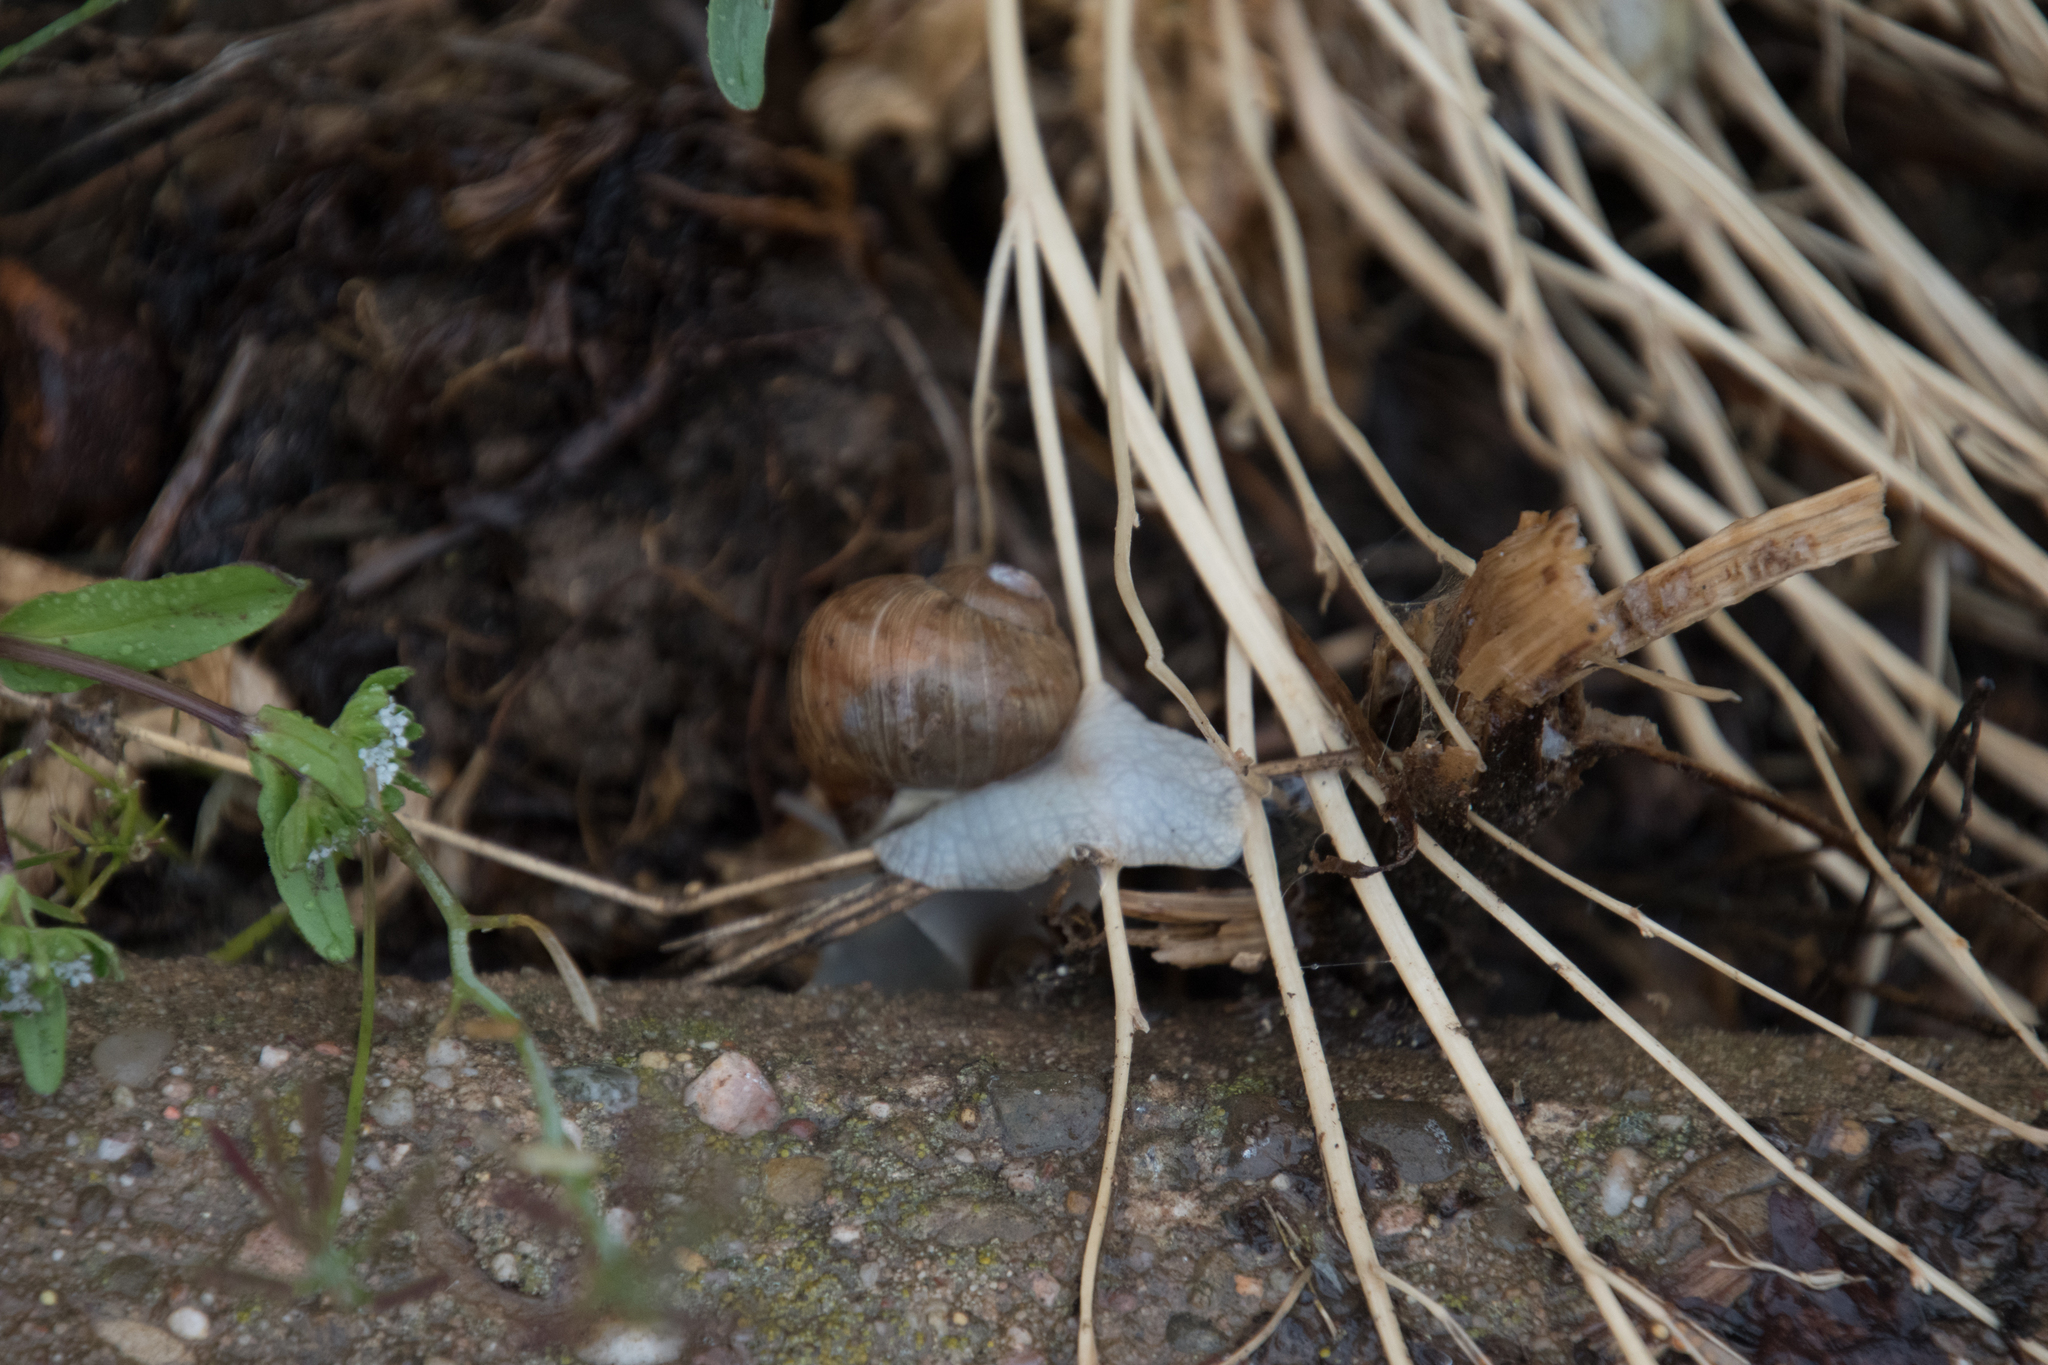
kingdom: Animalia
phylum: Mollusca
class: Gastropoda
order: Stylommatophora
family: Helicidae
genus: Helix
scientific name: Helix pomatia
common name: Roman snail
